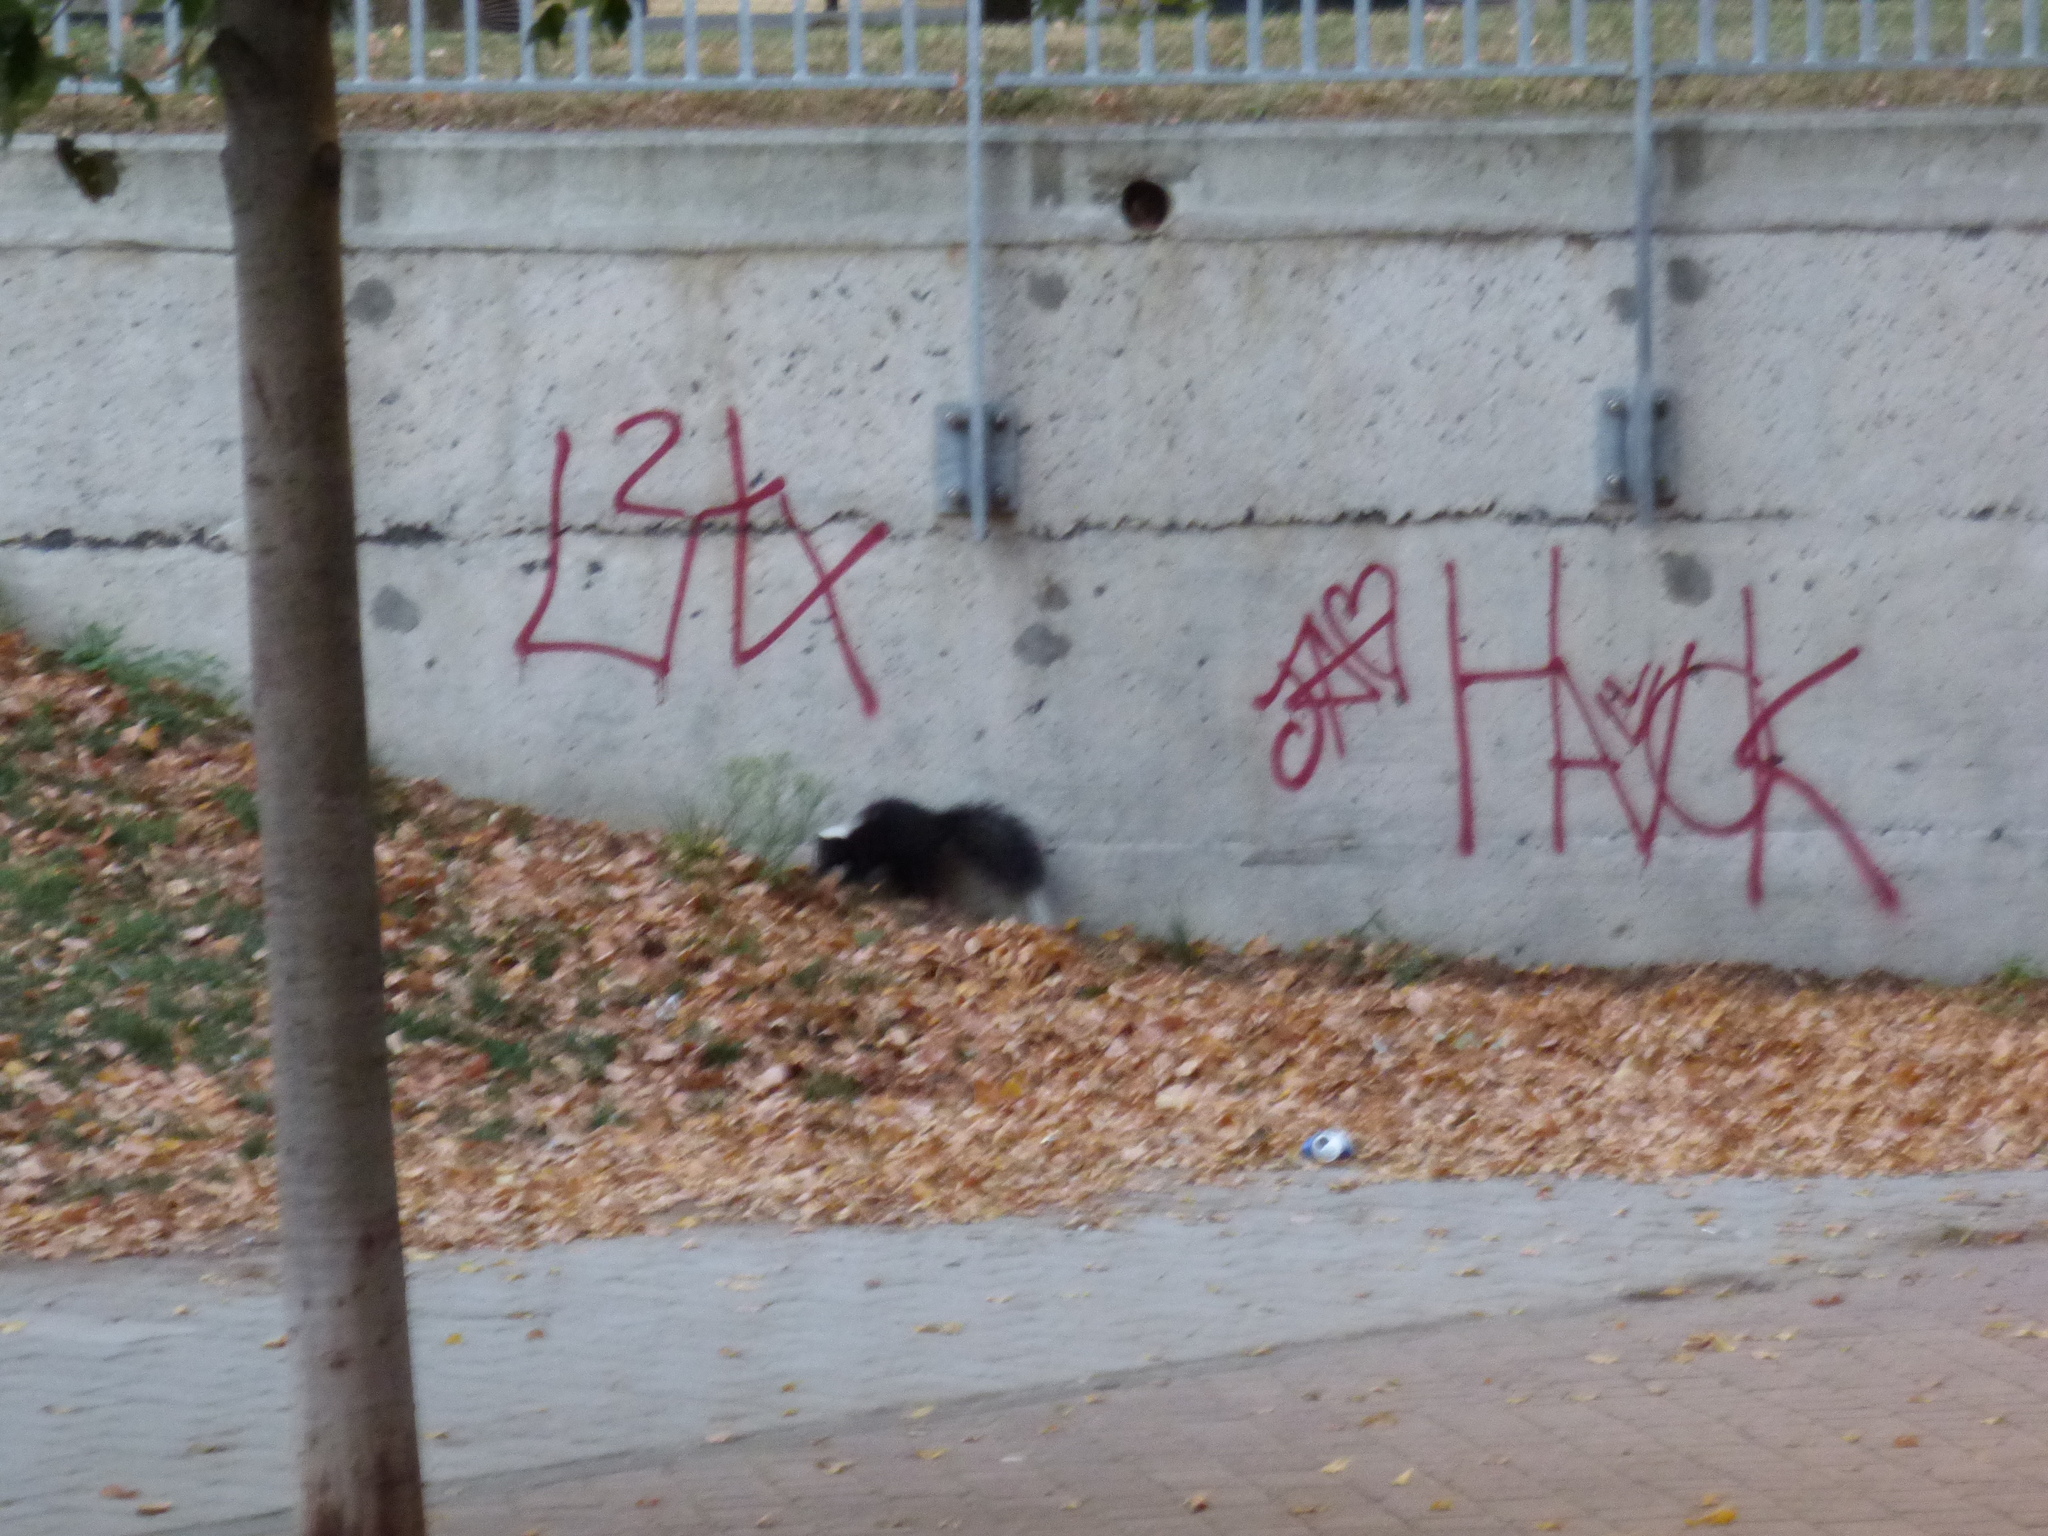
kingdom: Animalia
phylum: Chordata
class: Mammalia
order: Carnivora
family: Mephitidae
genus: Mephitis
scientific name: Mephitis mephitis
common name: Striped skunk
